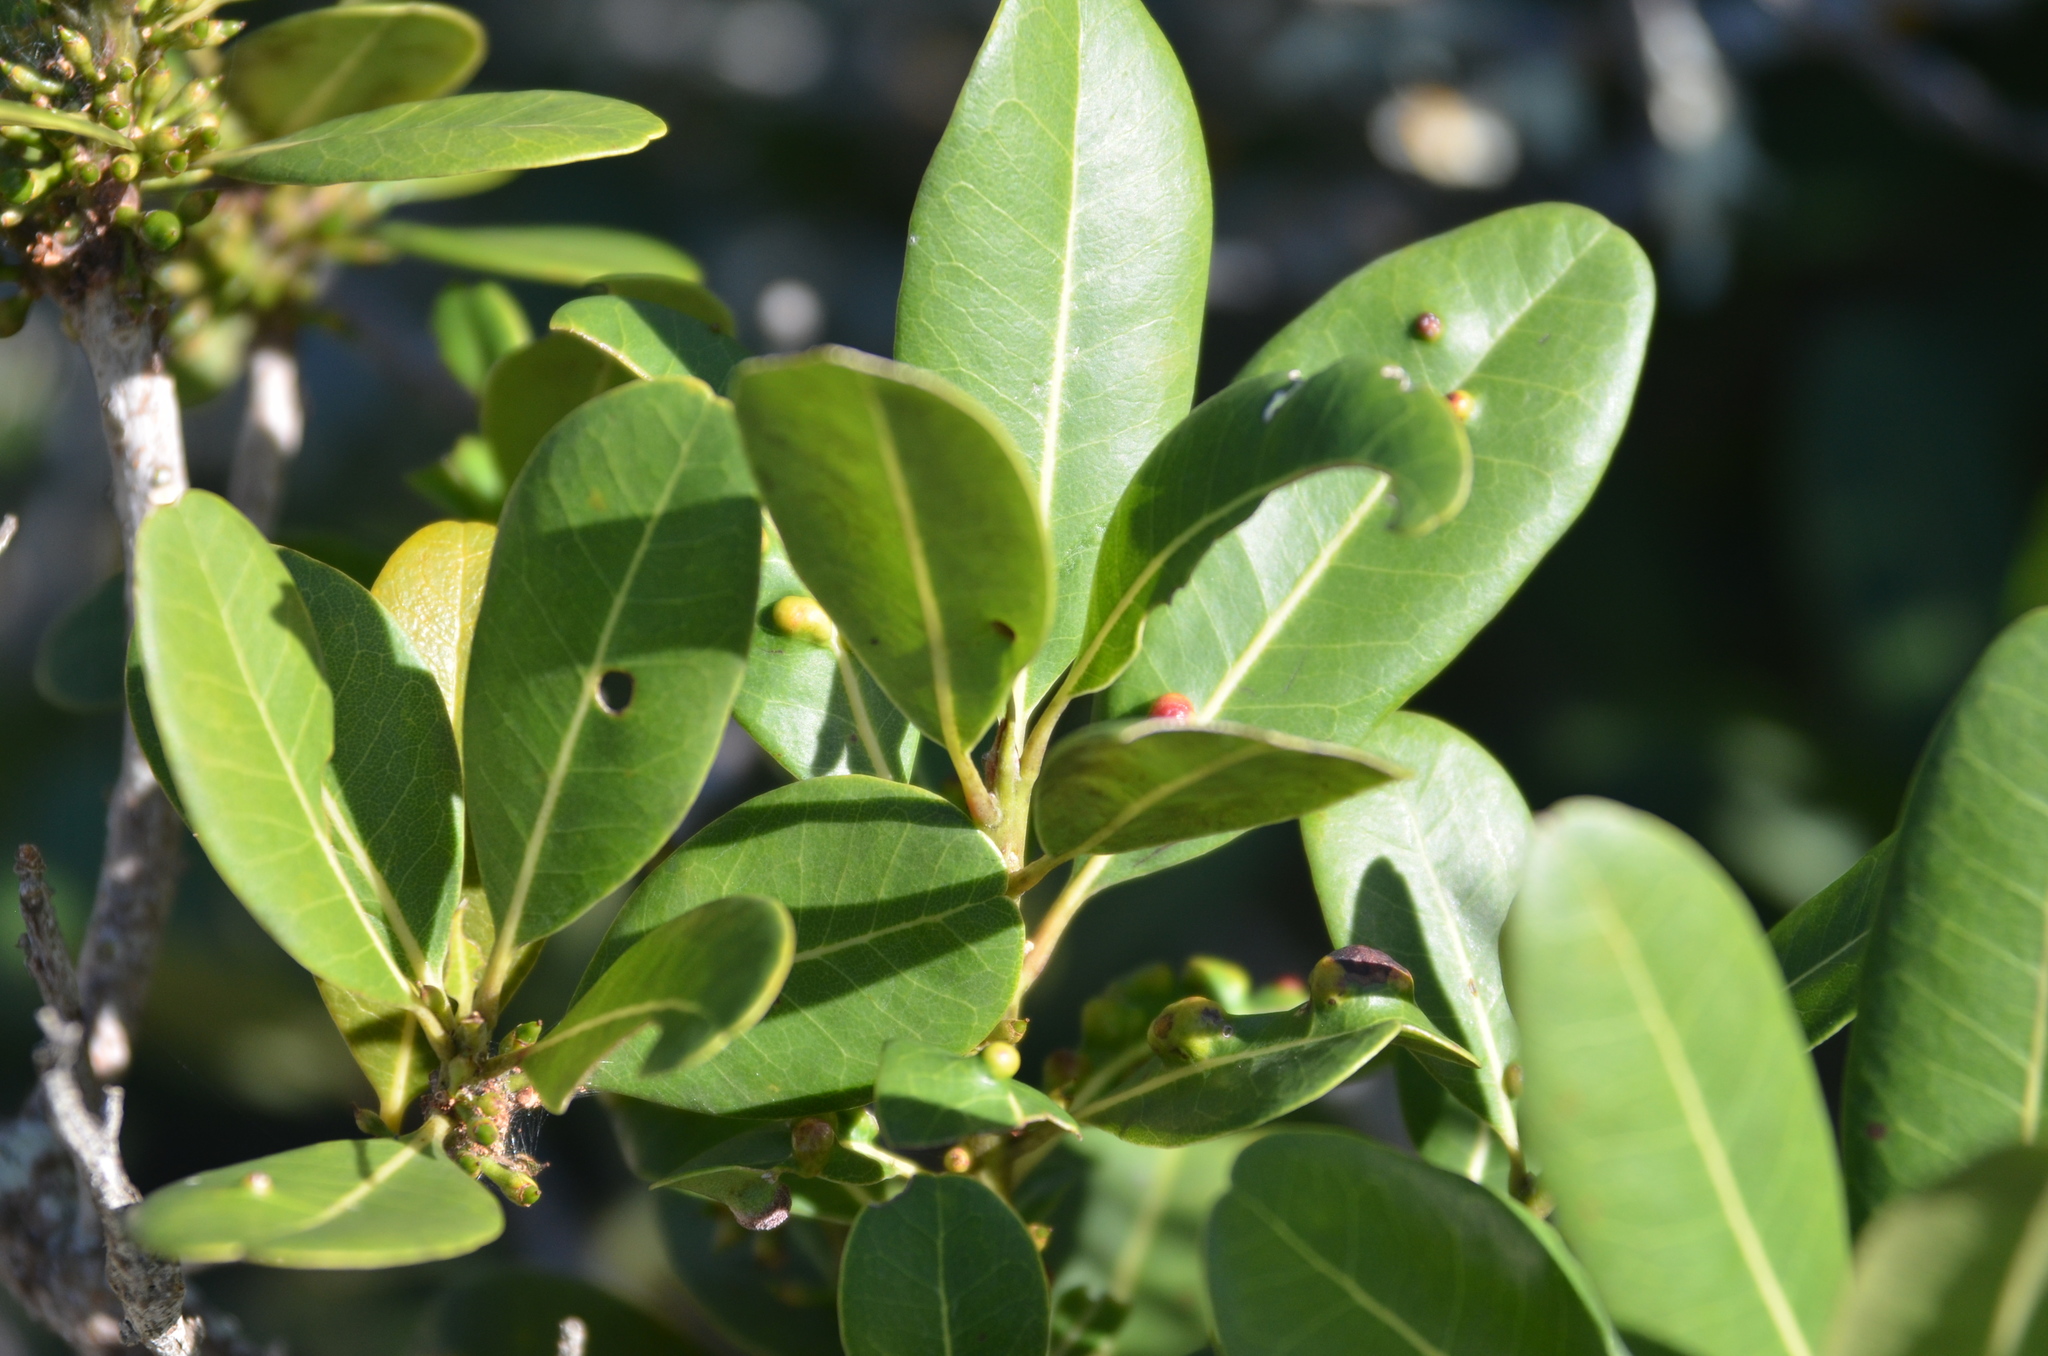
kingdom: Plantae
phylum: Tracheophyta
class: Magnoliopsida
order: Ericales
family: Sapotaceae
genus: Sideroxylon
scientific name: Sideroxylon inerme
